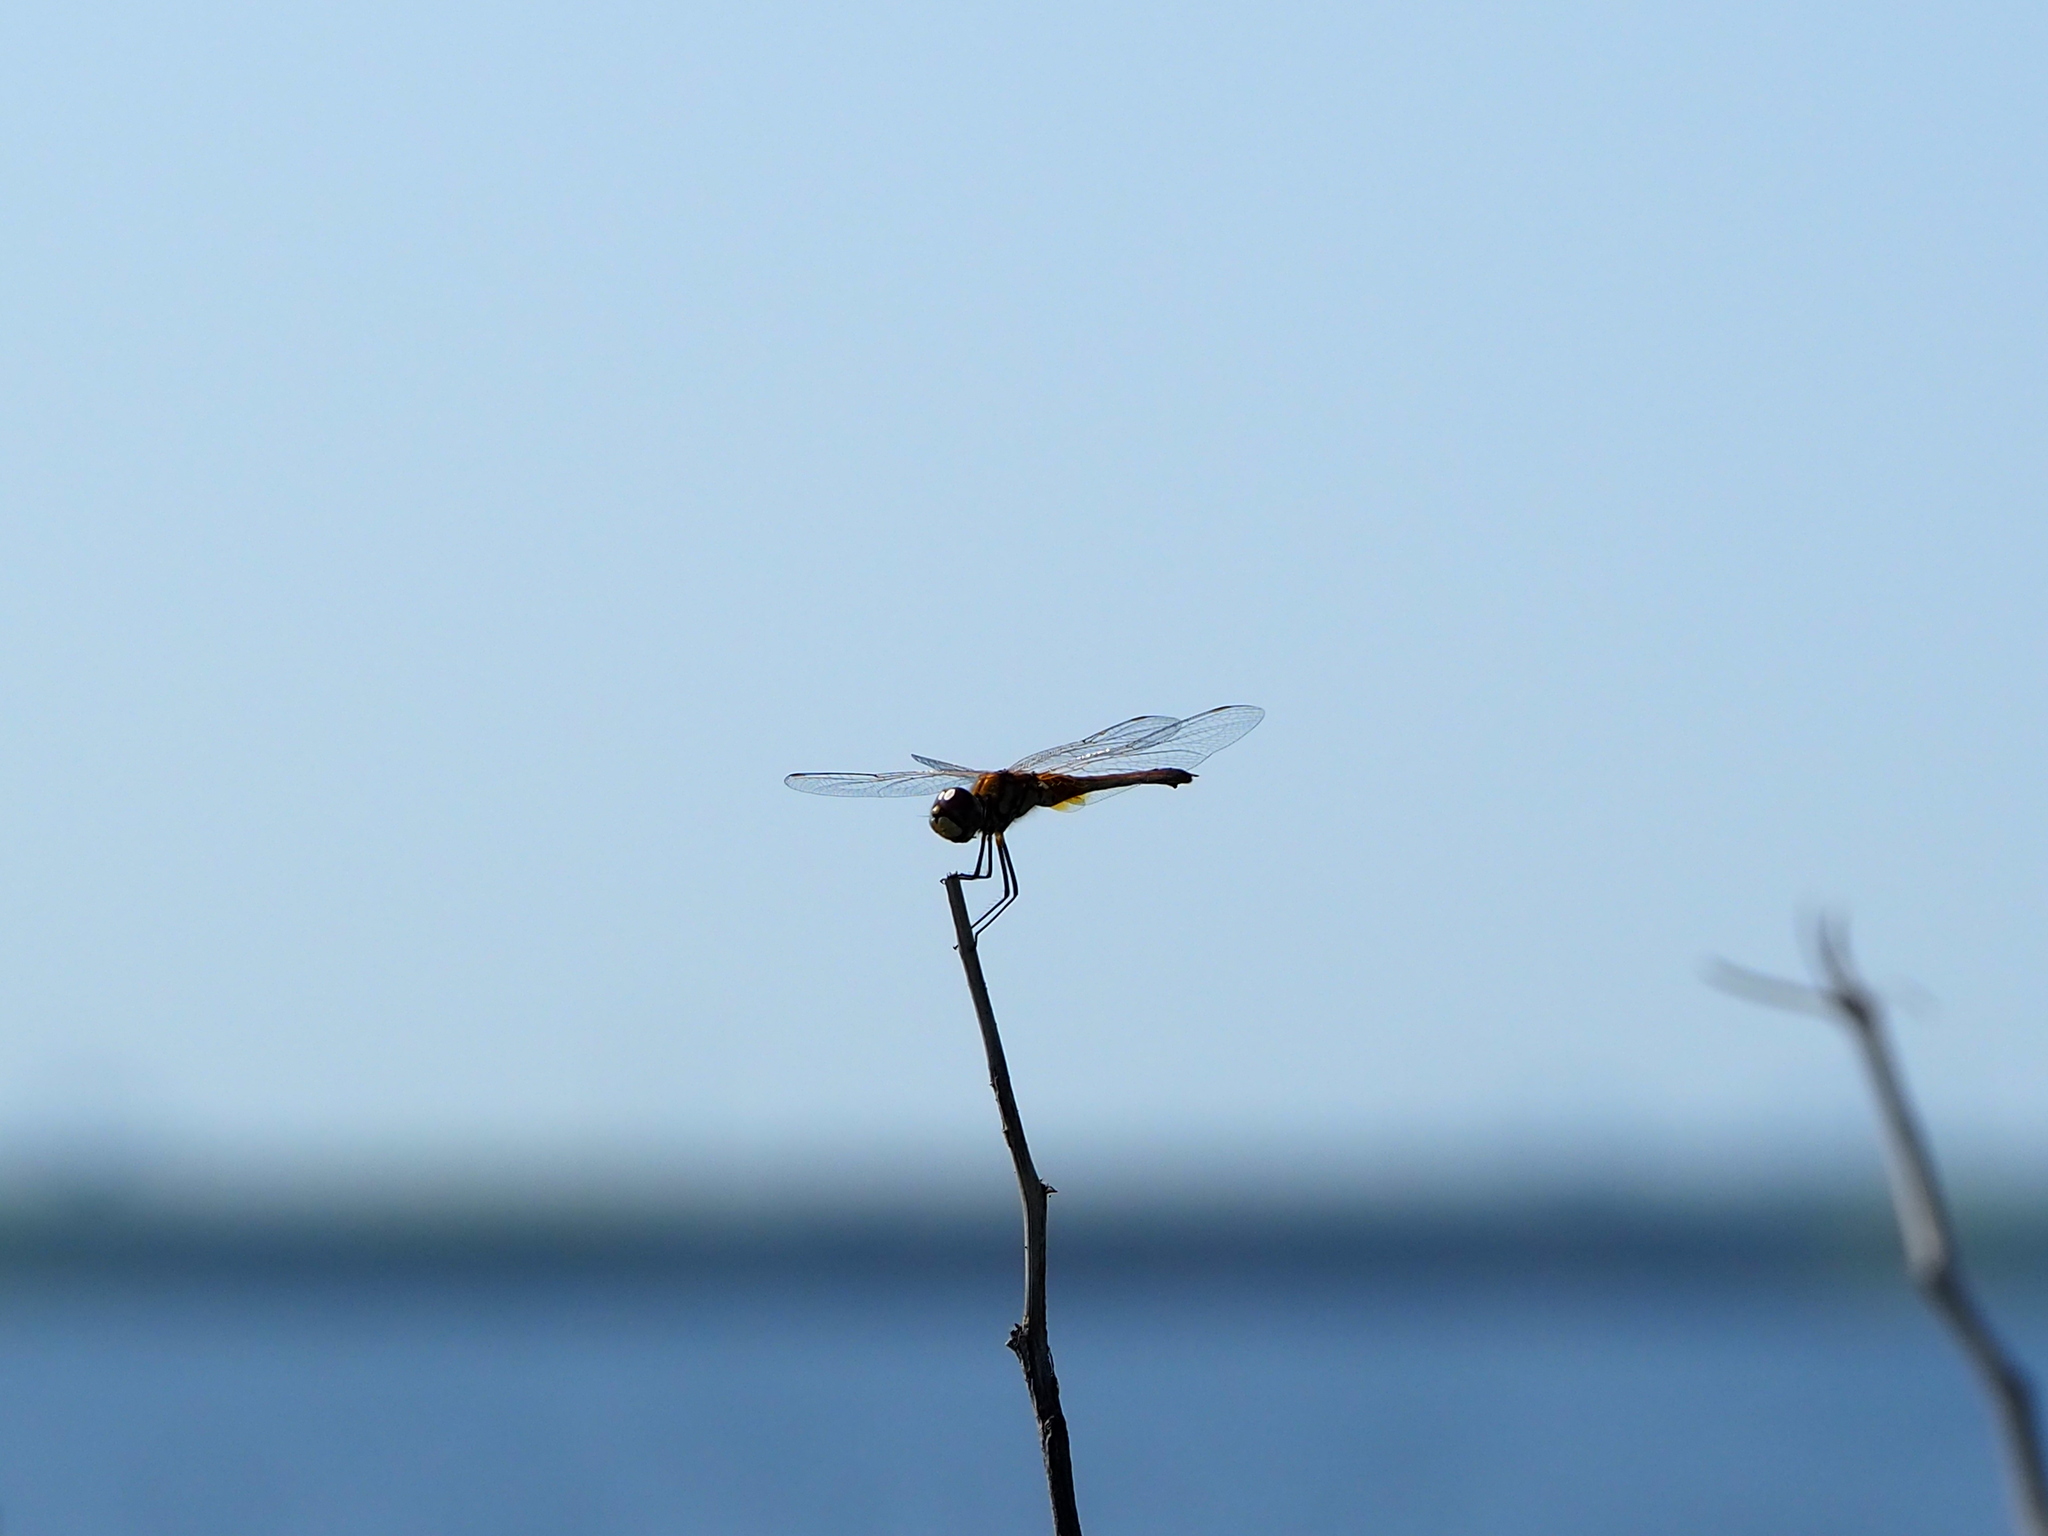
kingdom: Animalia
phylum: Arthropoda
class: Insecta
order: Odonata
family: Libellulidae
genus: Macrodiplax
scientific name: Macrodiplax cora
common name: Coastal glider
